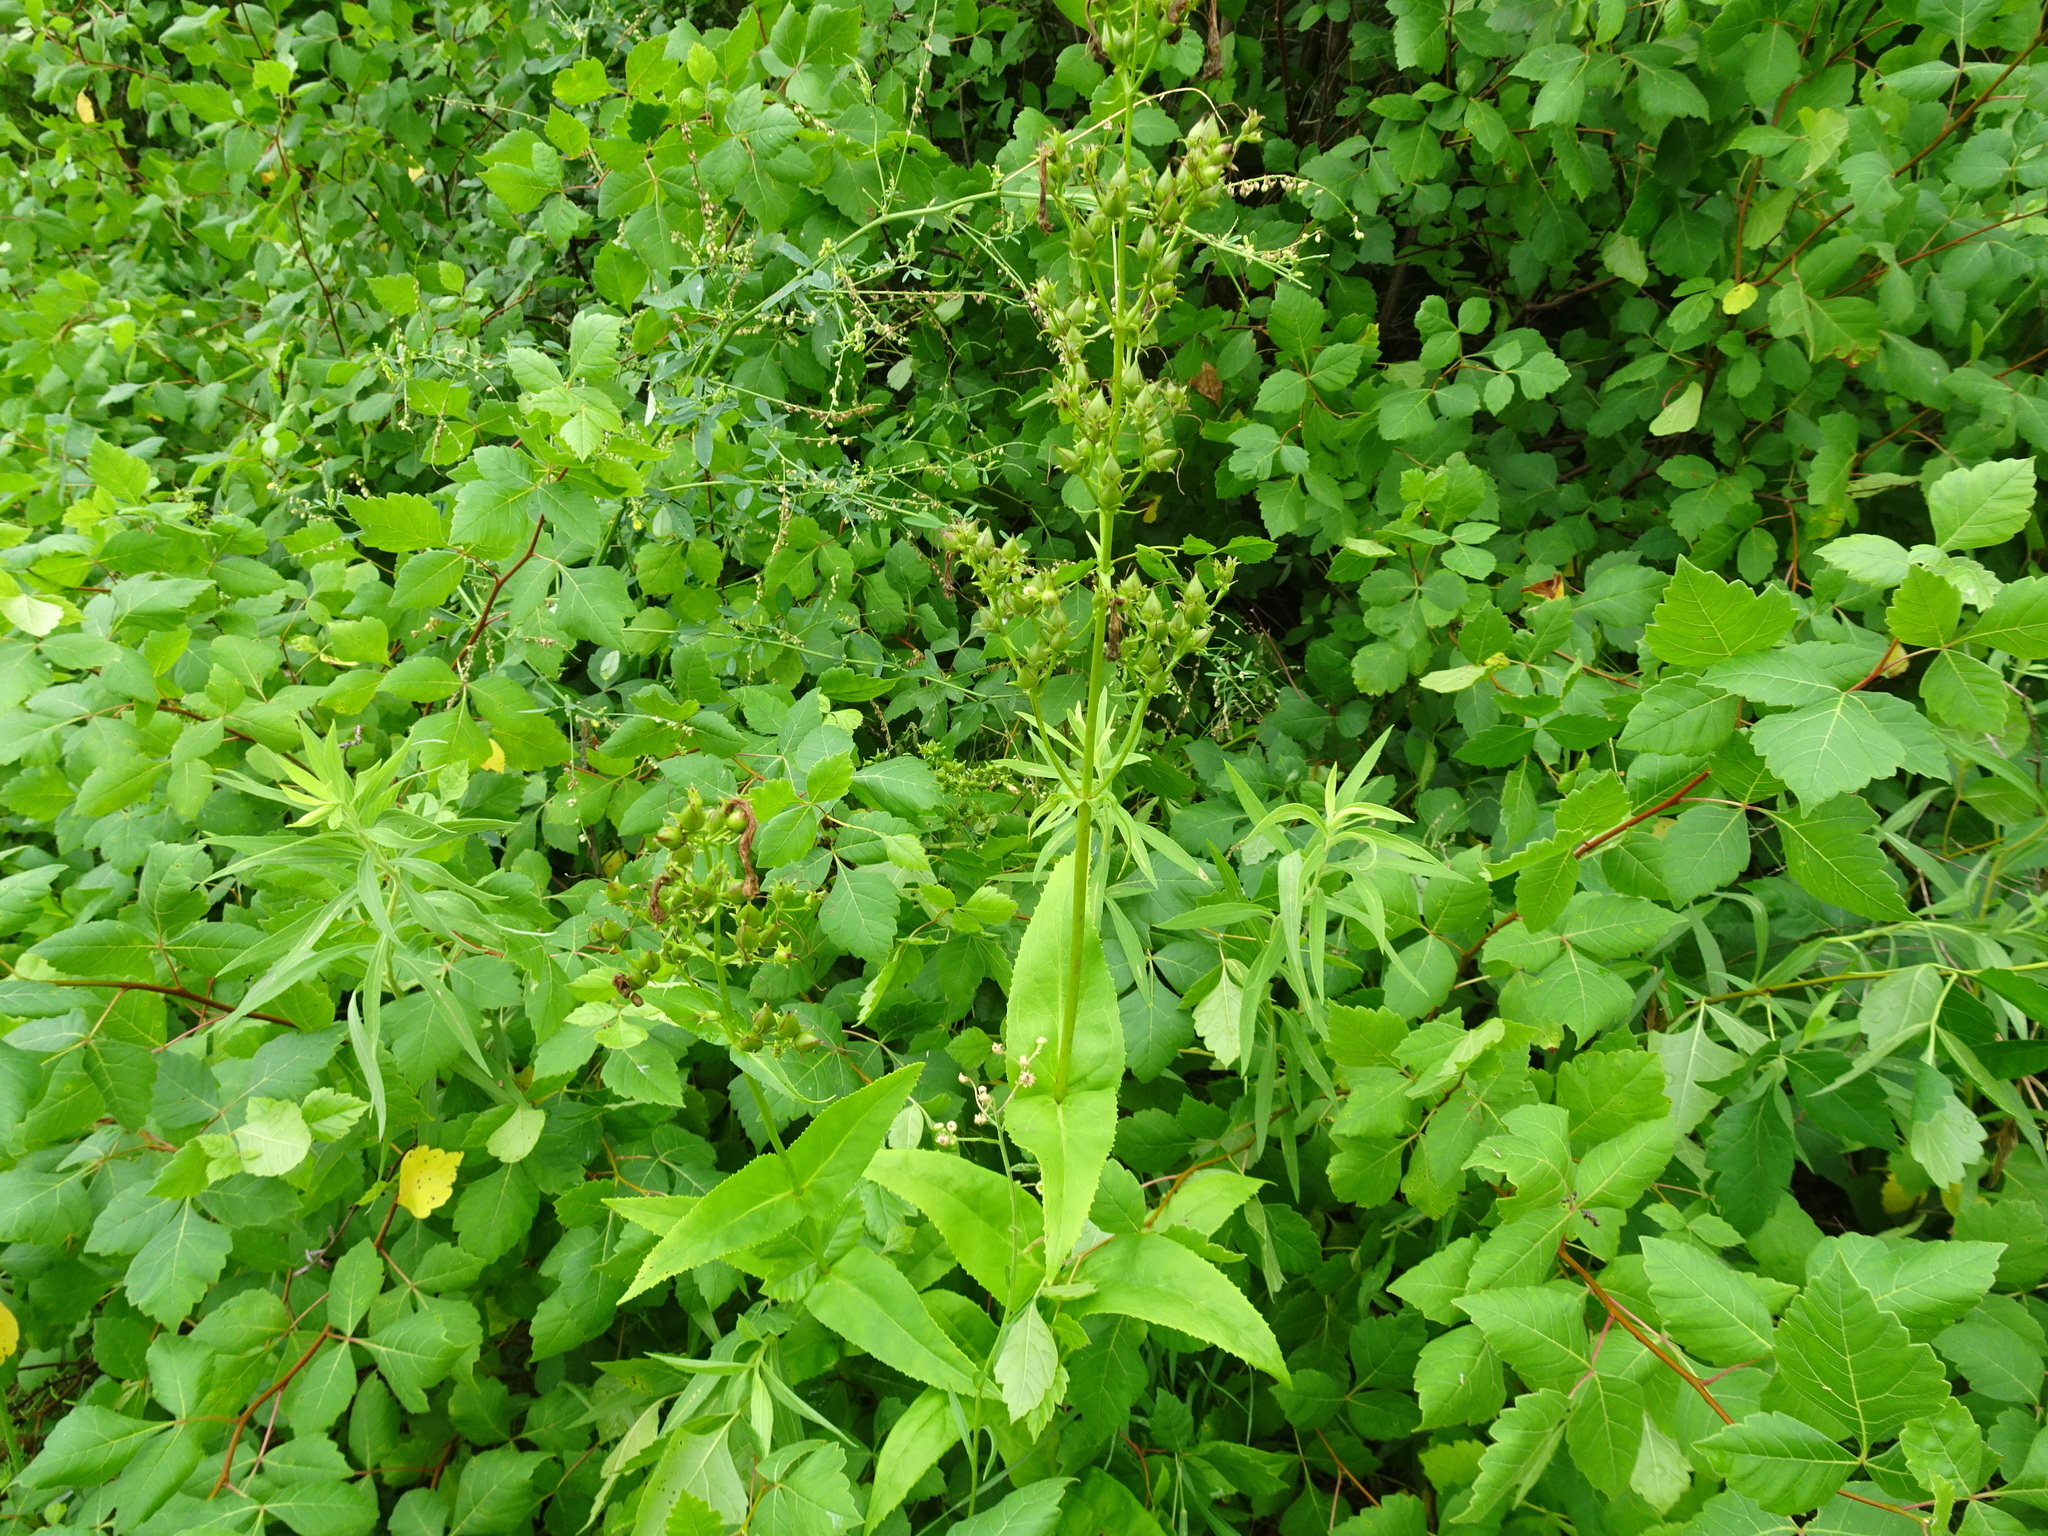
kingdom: Plantae
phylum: Tracheophyta
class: Magnoliopsida
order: Lamiales
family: Plantaginaceae
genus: Penstemon
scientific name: Penstemon digitalis
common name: Foxglove beardtongue
